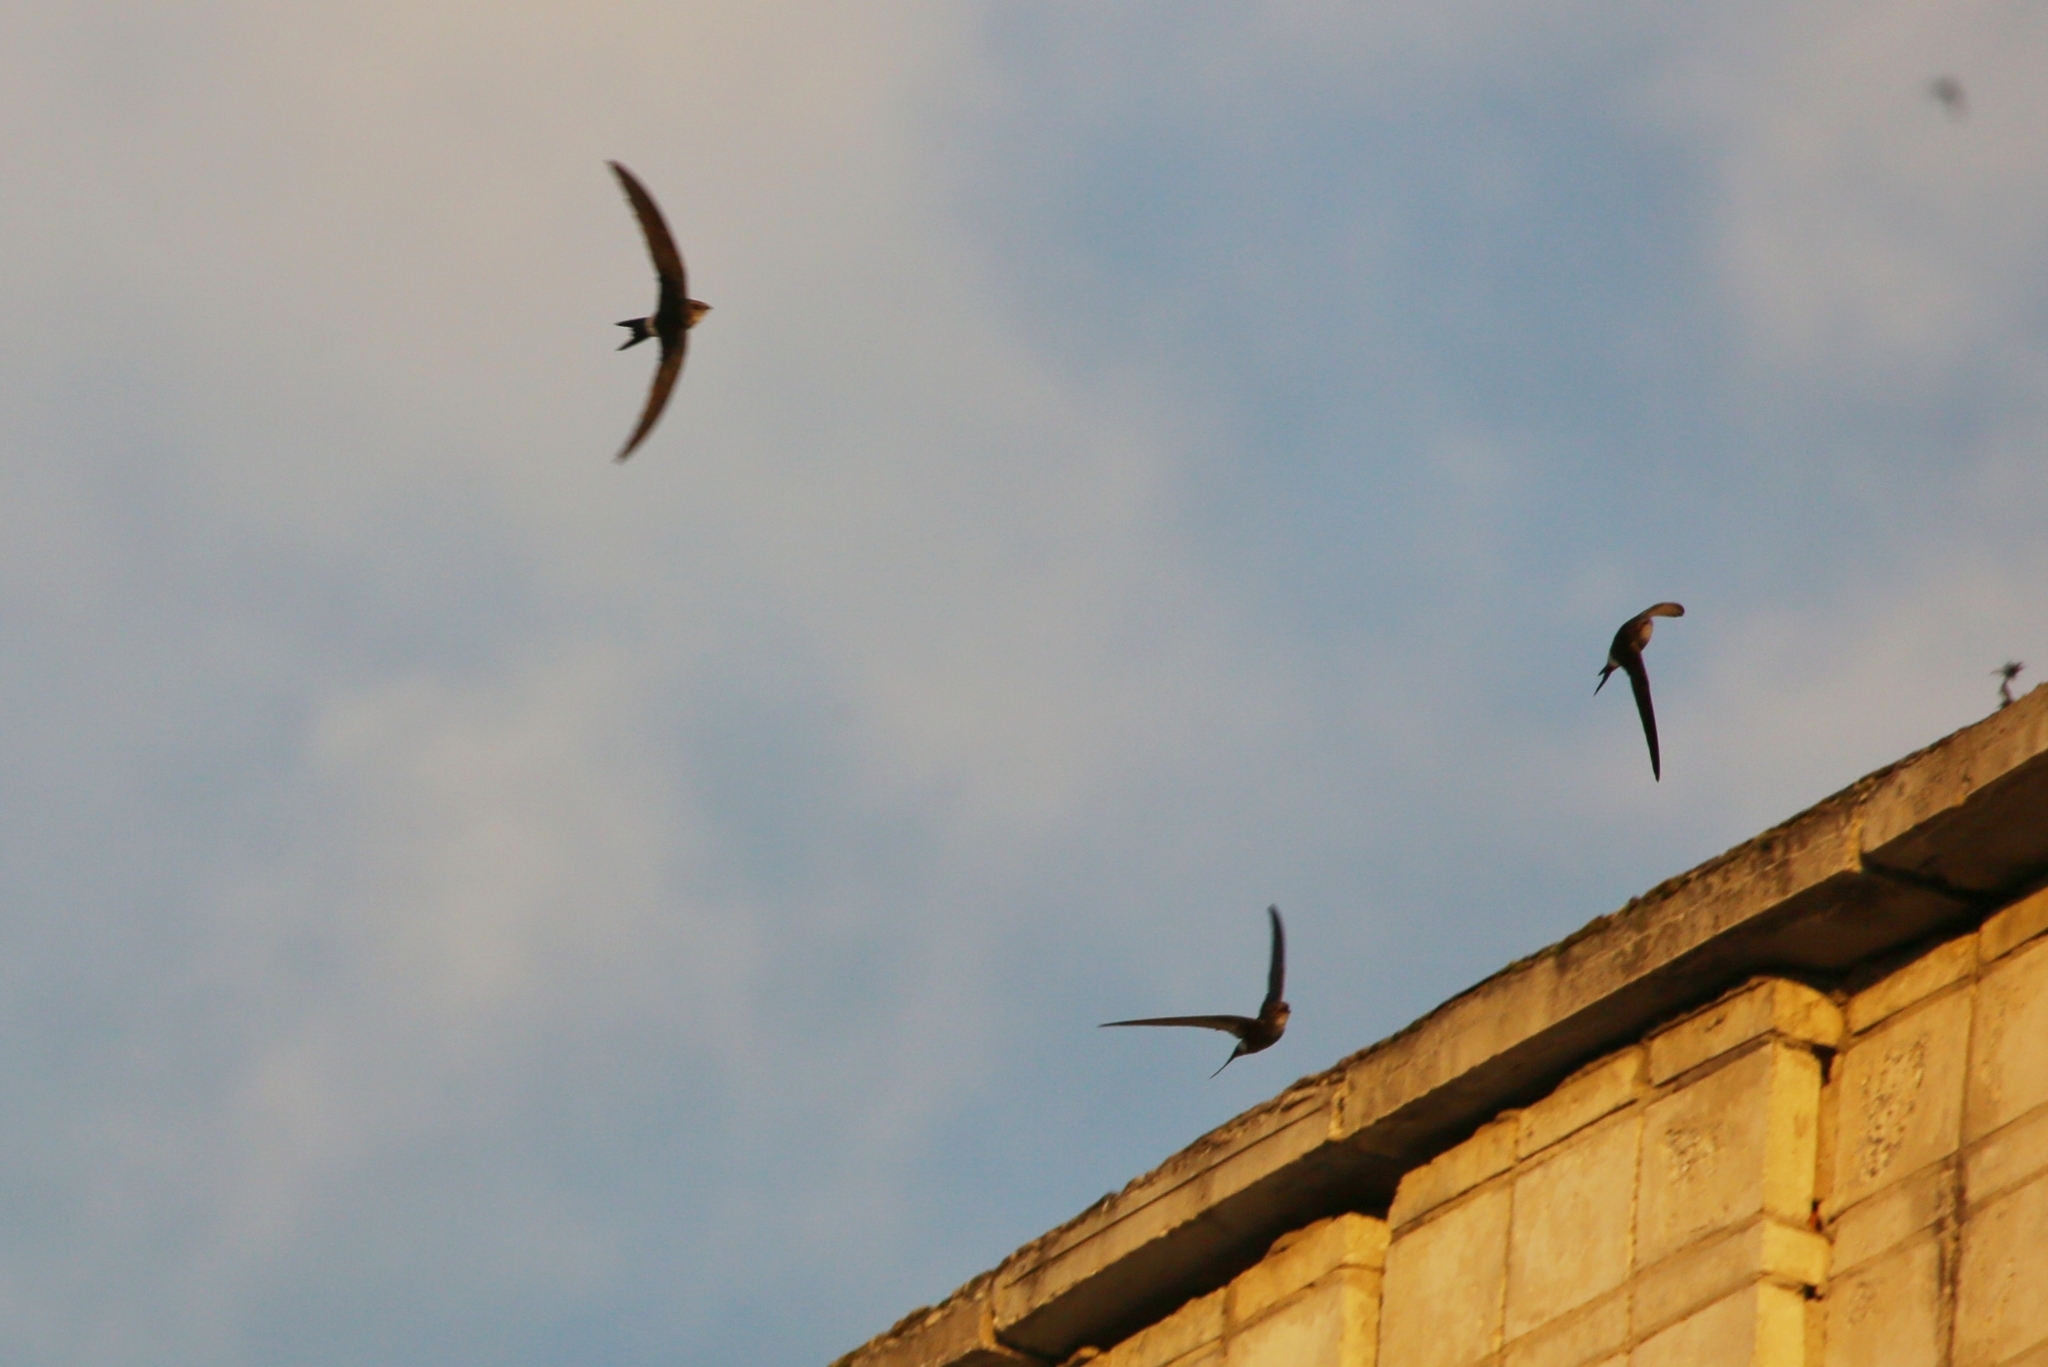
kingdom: Animalia
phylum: Chordata
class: Aves
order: Apodiformes
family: Apodidae
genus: Apus
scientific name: Apus pacificus
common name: Pacific swift
